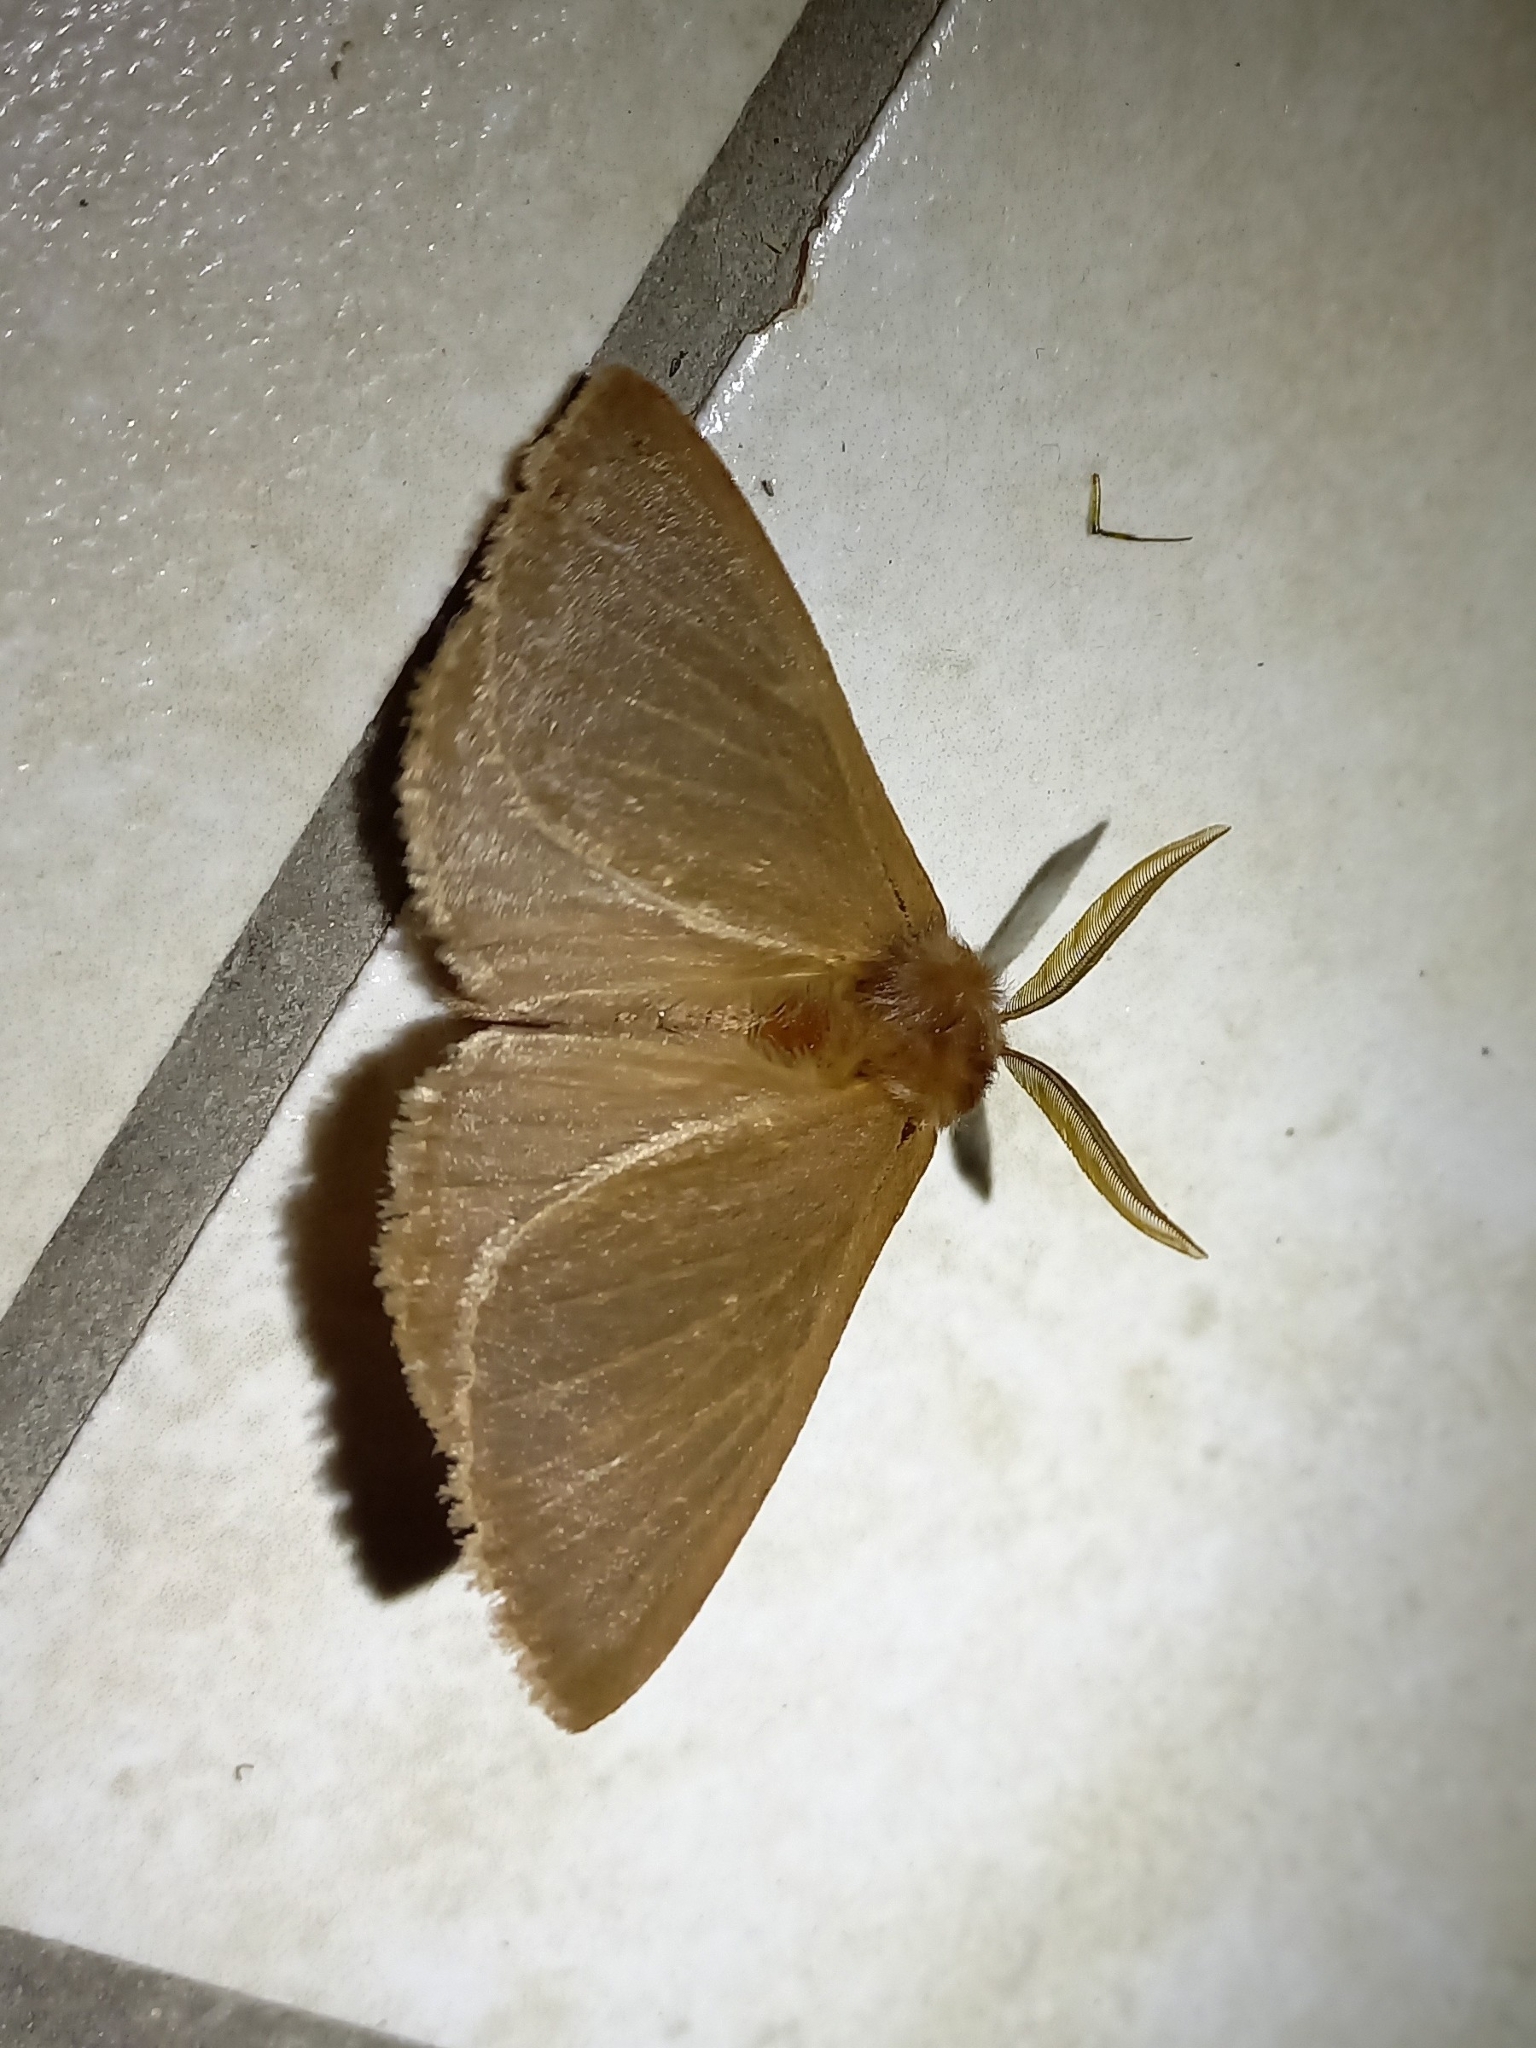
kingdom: Animalia
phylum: Arthropoda
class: Insecta
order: Lepidoptera
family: Eupterotidae
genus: Phyllalia
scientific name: Phyllalia patens
